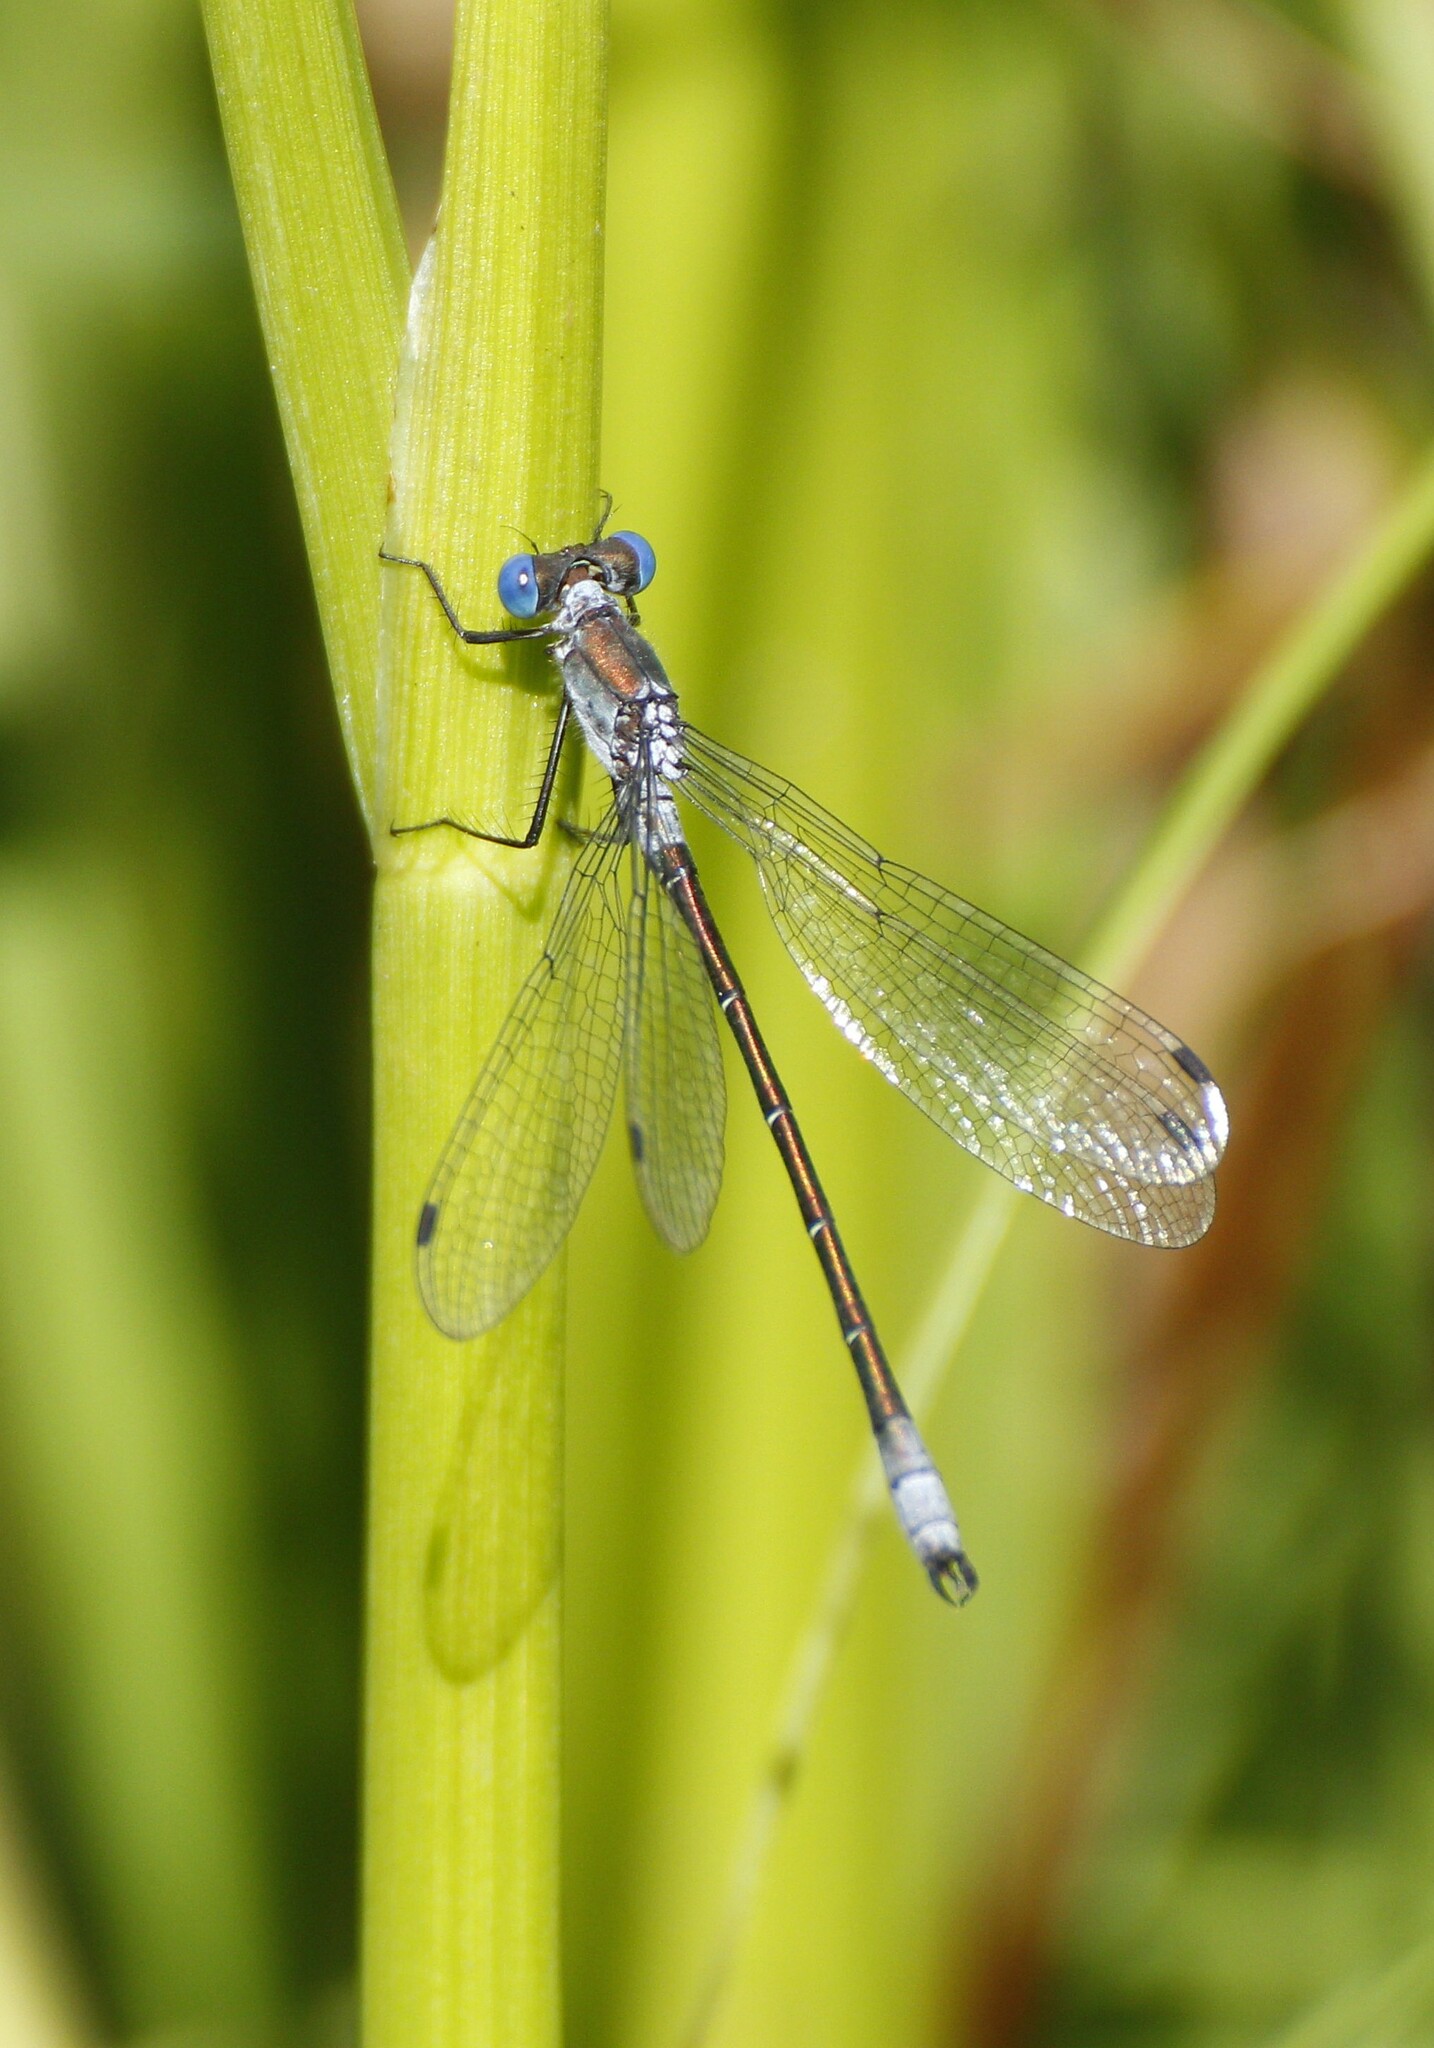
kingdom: Animalia
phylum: Arthropoda
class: Insecta
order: Odonata
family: Lestidae
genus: Lestes
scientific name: Lestes dryas
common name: Scarce emerald damselfly
